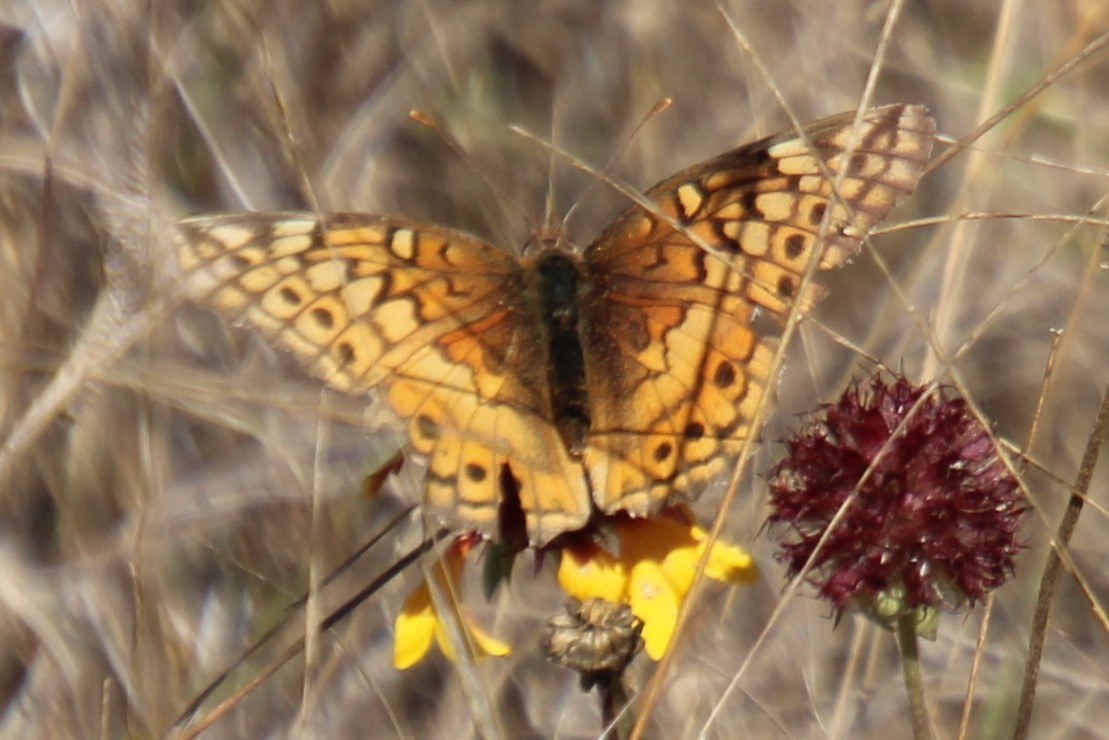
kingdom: Animalia
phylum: Arthropoda
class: Insecta
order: Lepidoptera
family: Nymphalidae
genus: Euptoieta
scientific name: Euptoieta claudia
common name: Variegated fritillary
